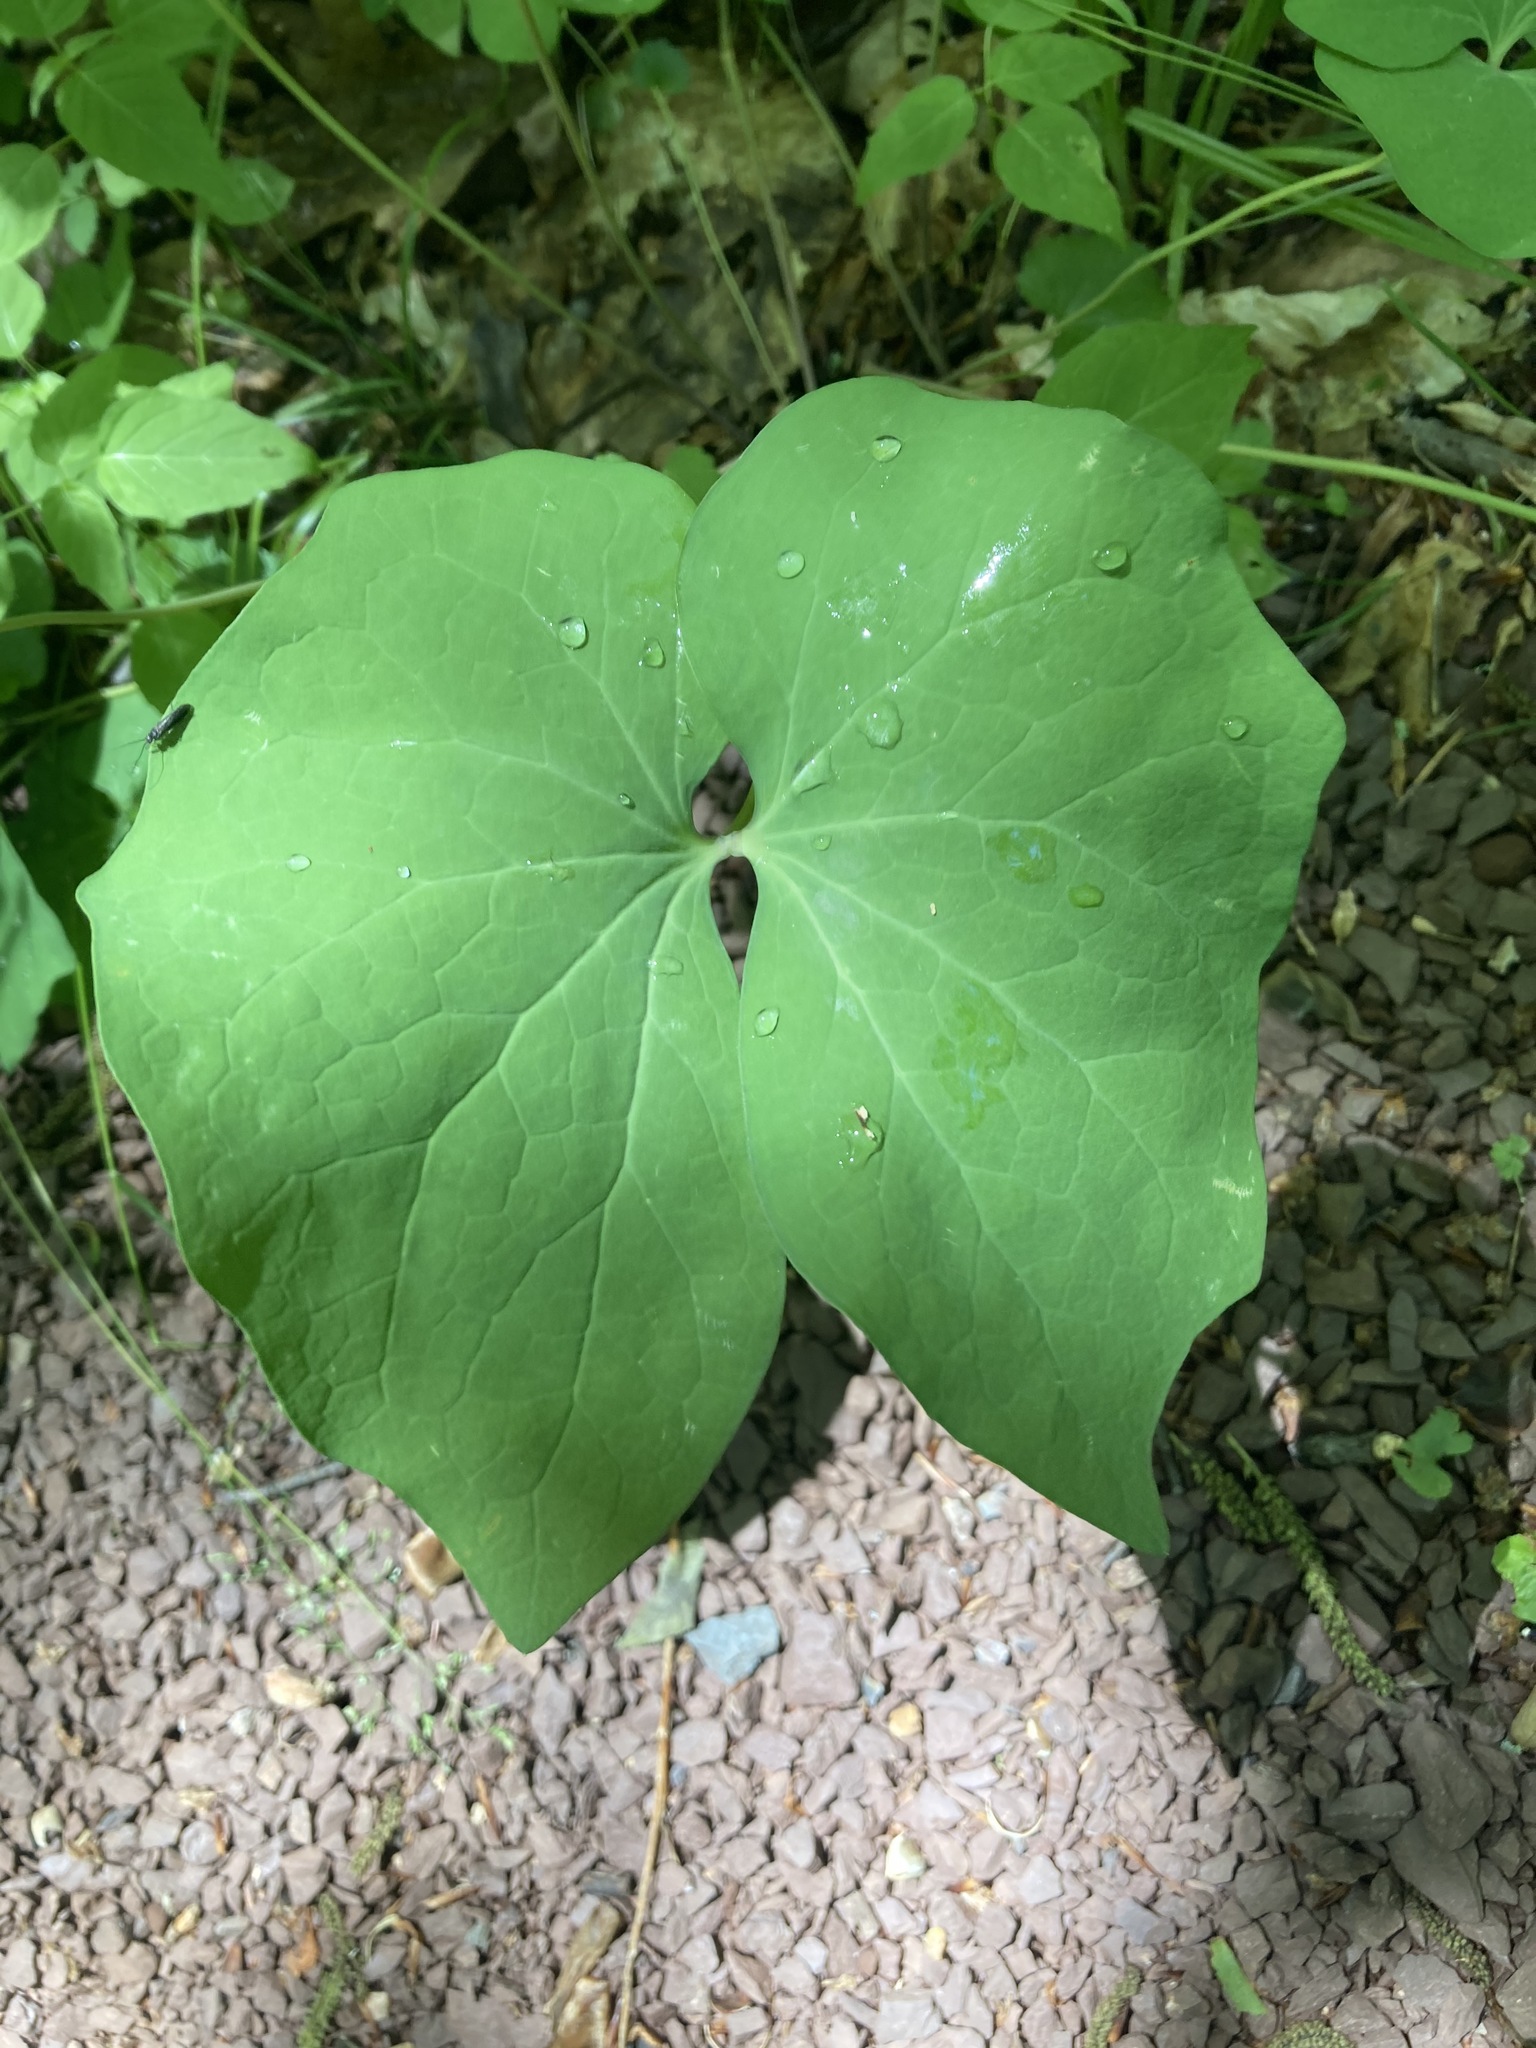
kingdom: Plantae
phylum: Tracheophyta
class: Magnoliopsida
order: Ranunculales
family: Berberidaceae
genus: Jeffersonia
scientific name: Jeffersonia diphylla
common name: Rheumatism-root
